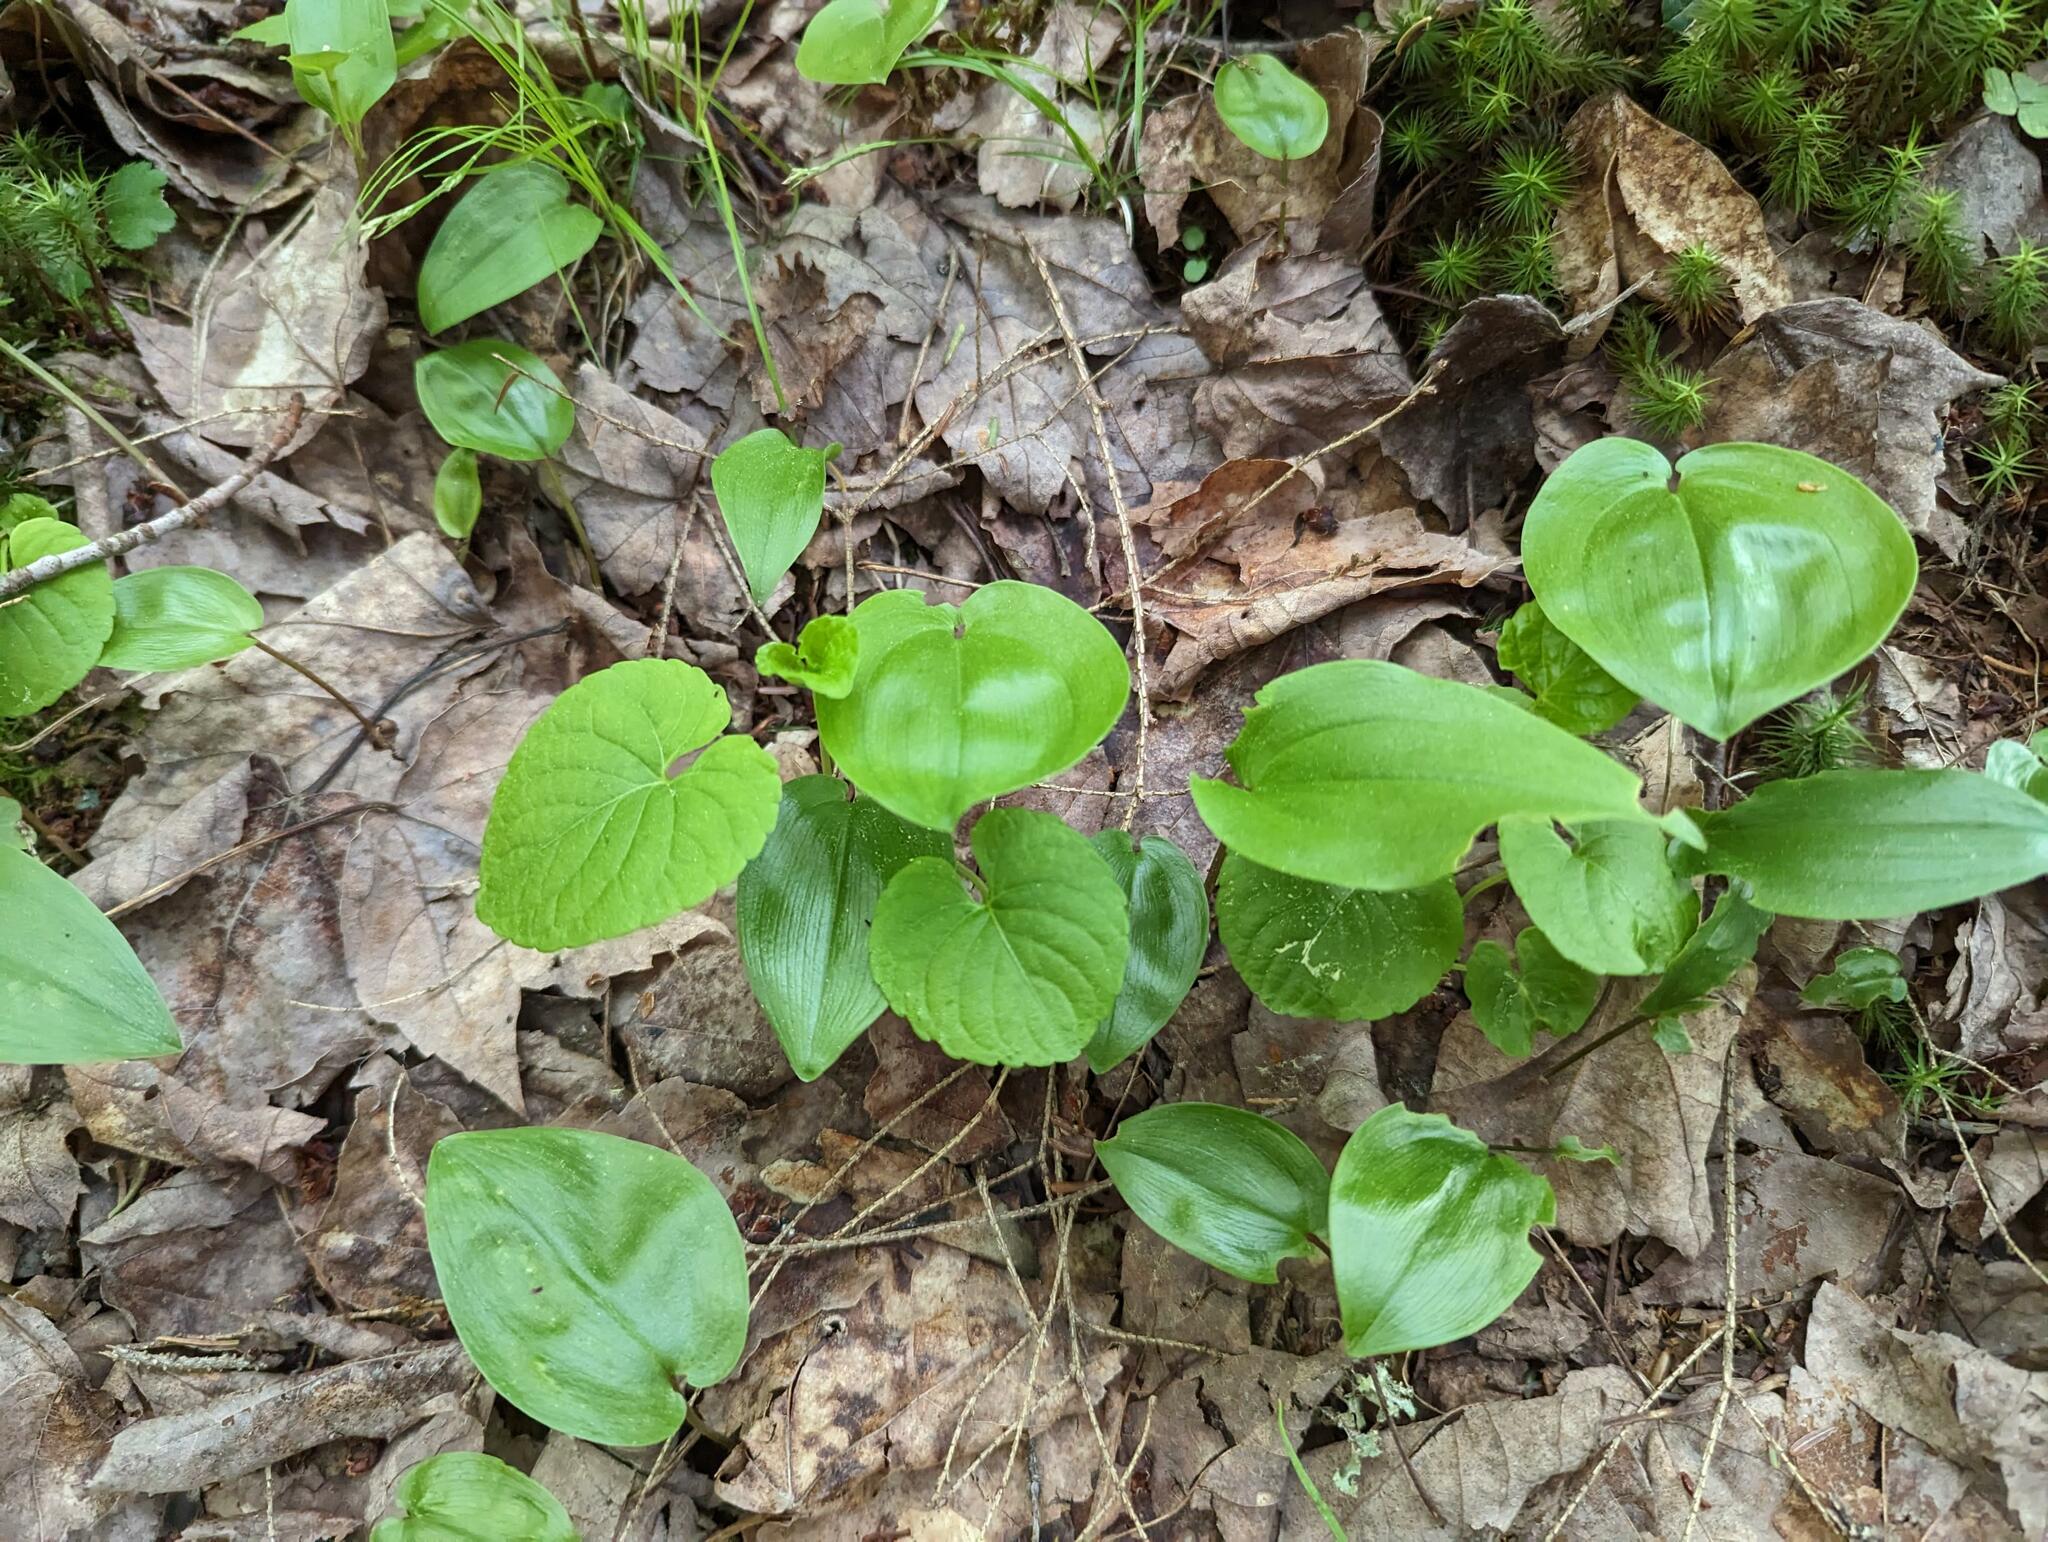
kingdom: Plantae
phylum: Tracheophyta
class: Liliopsida
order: Asparagales
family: Asparagaceae
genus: Maianthemum
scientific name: Maianthemum canadense
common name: False lily-of-the-valley
